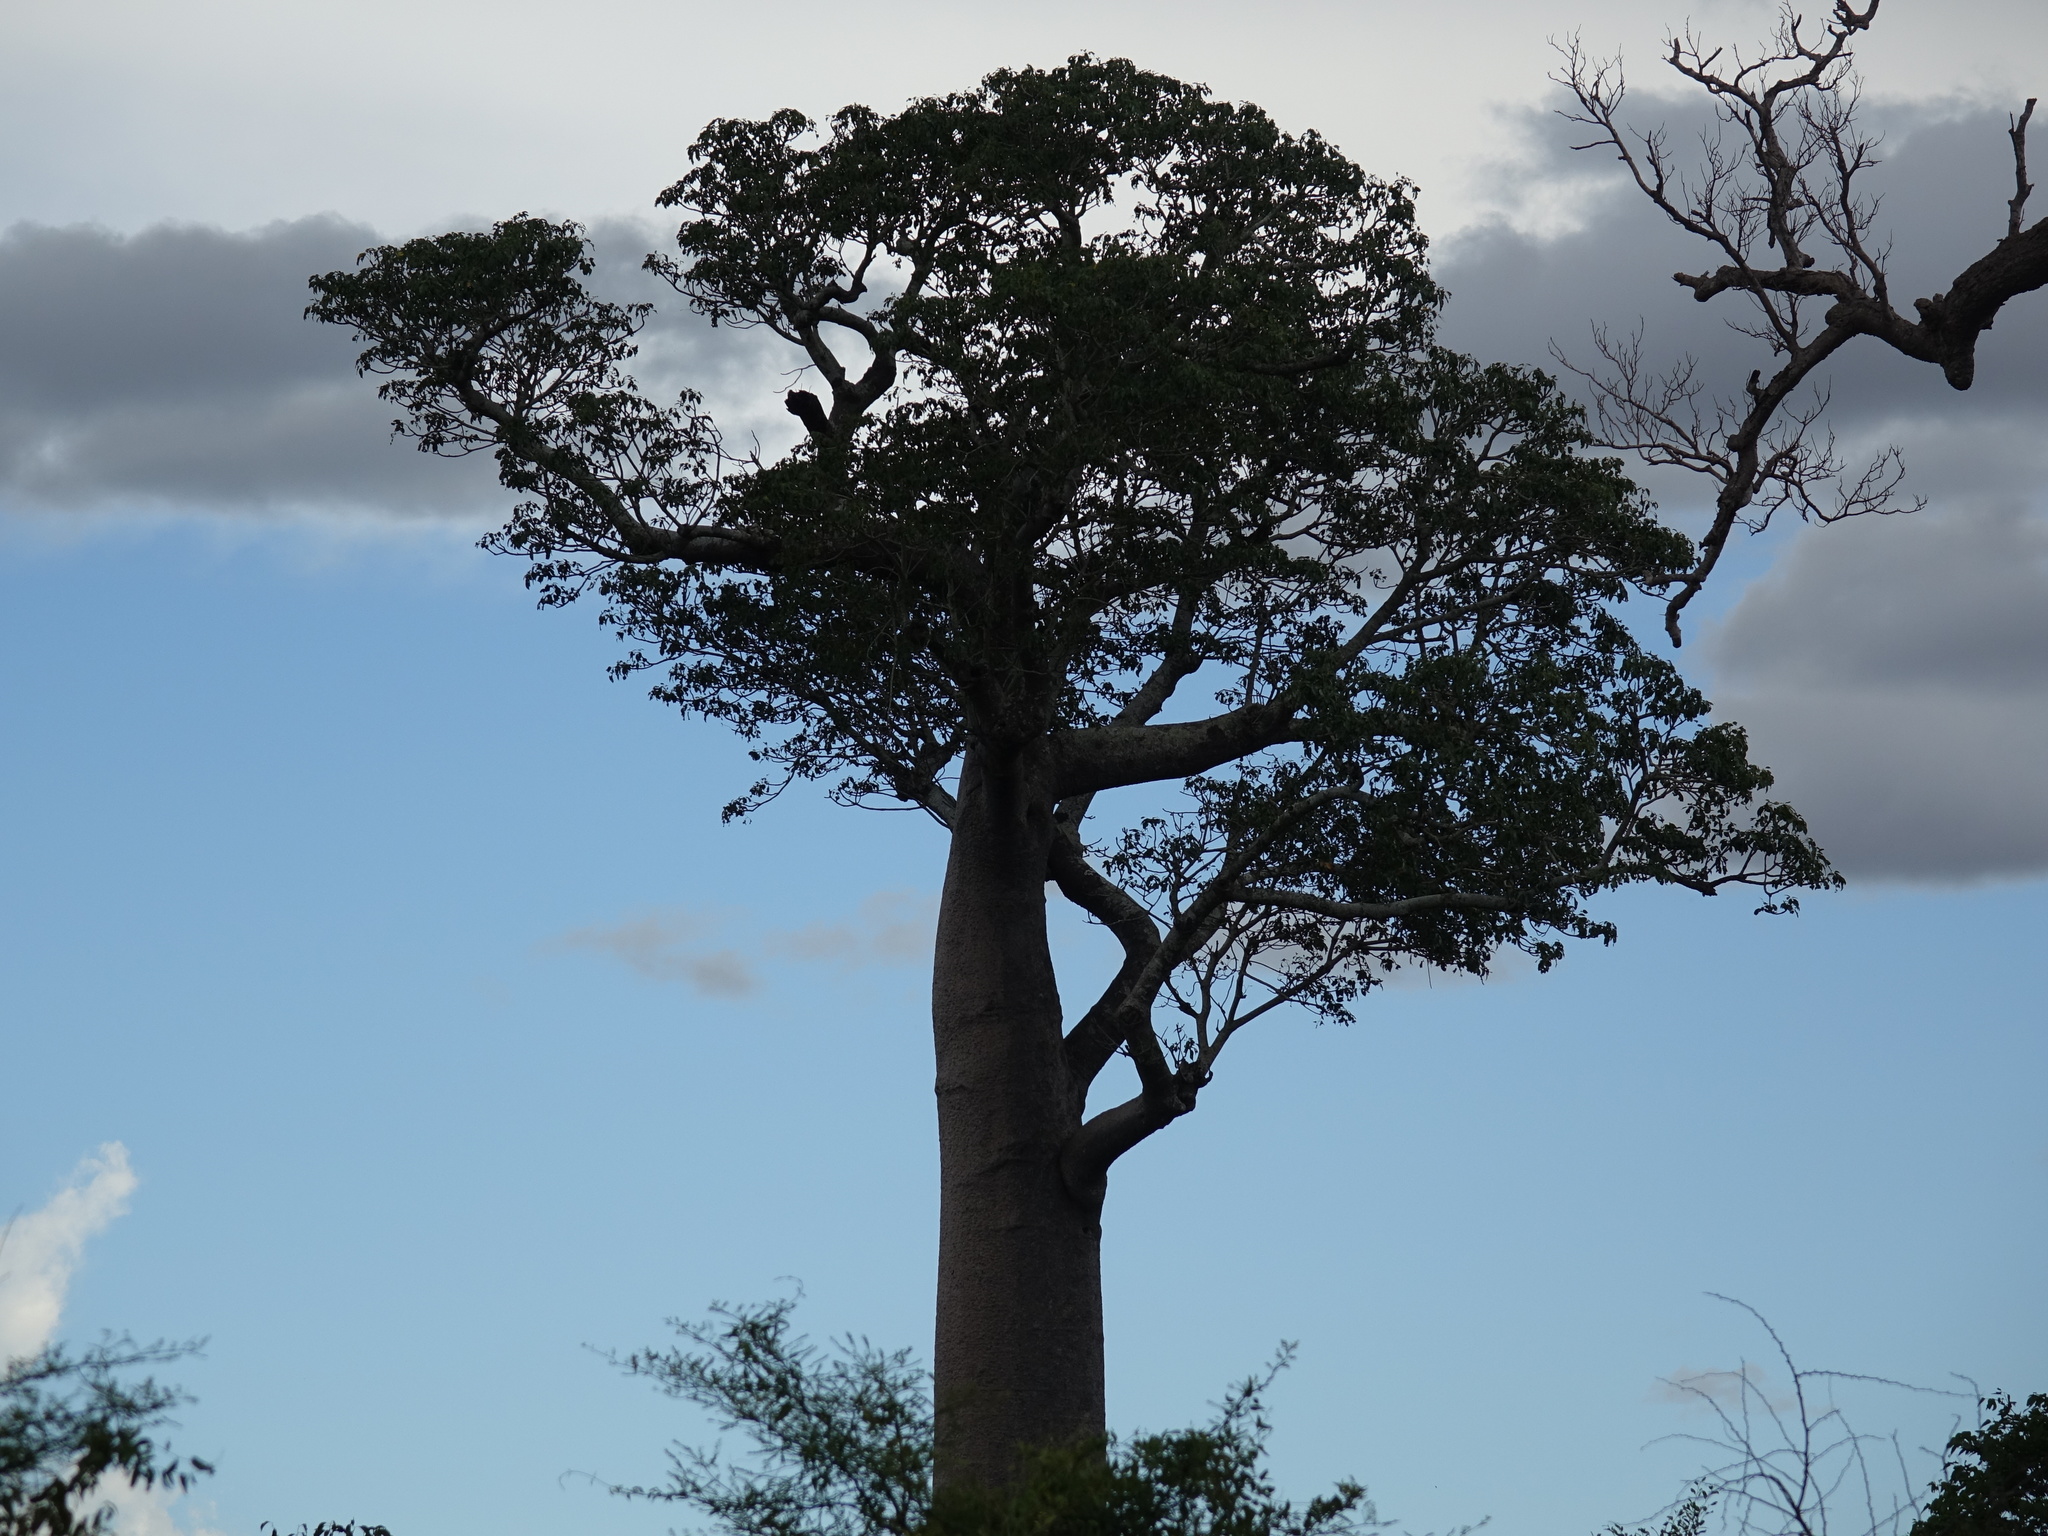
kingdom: Plantae
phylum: Tracheophyta
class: Magnoliopsida
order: Malvales
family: Malvaceae
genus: Adansonia
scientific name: Adansonia za
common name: Za baobab
